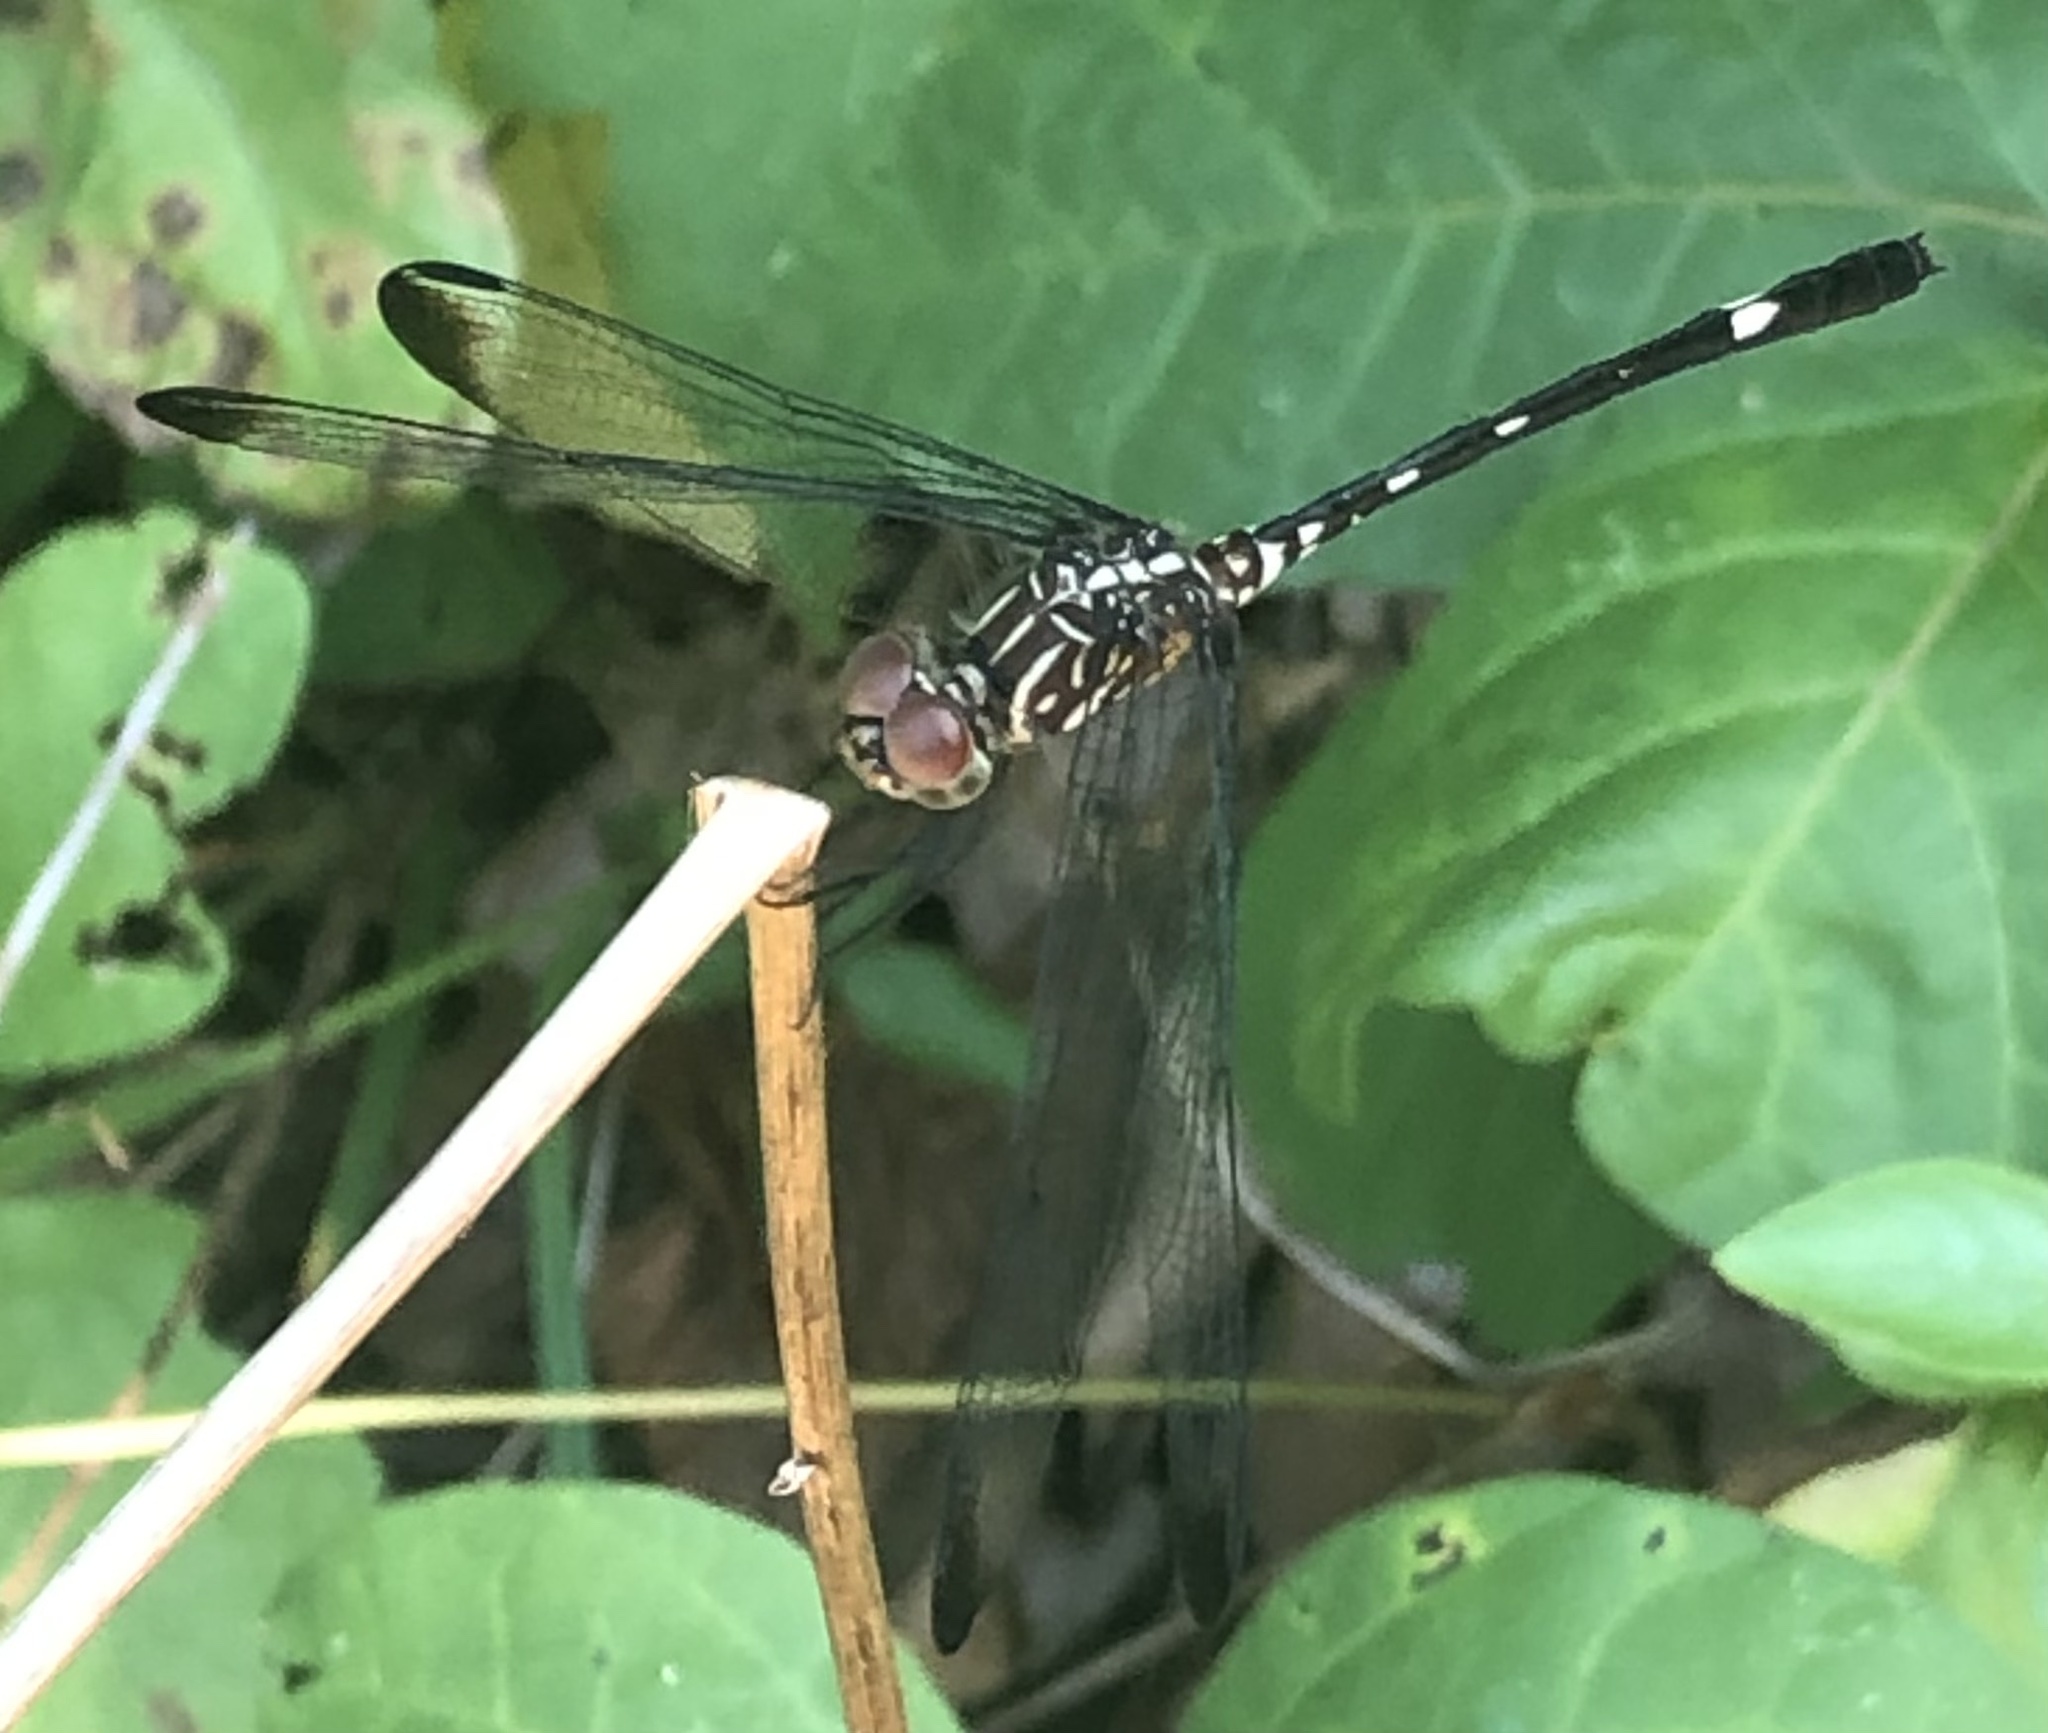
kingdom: Animalia
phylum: Arthropoda
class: Insecta
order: Odonata
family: Libellulidae
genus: Dythemis
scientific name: Dythemis velox
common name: Swift setwing
